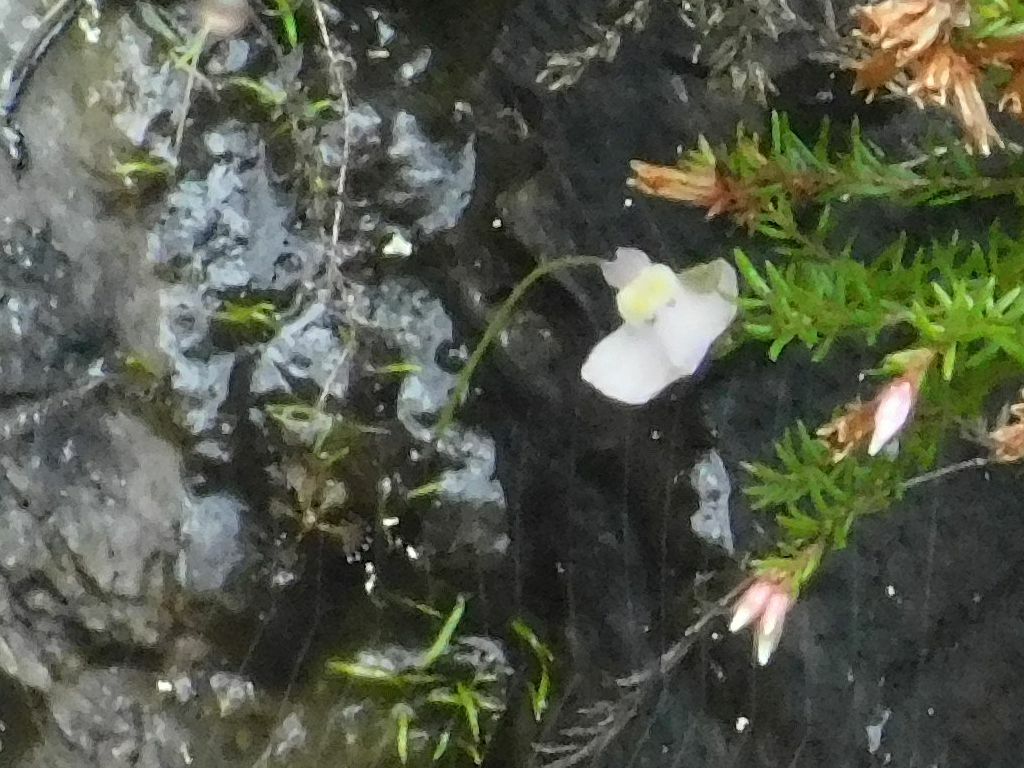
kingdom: Plantae
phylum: Tracheophyta
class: Magnoliopsida
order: Lamiales
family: Lentibulariaceae
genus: Utricularia
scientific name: Utricularia bisquamata
